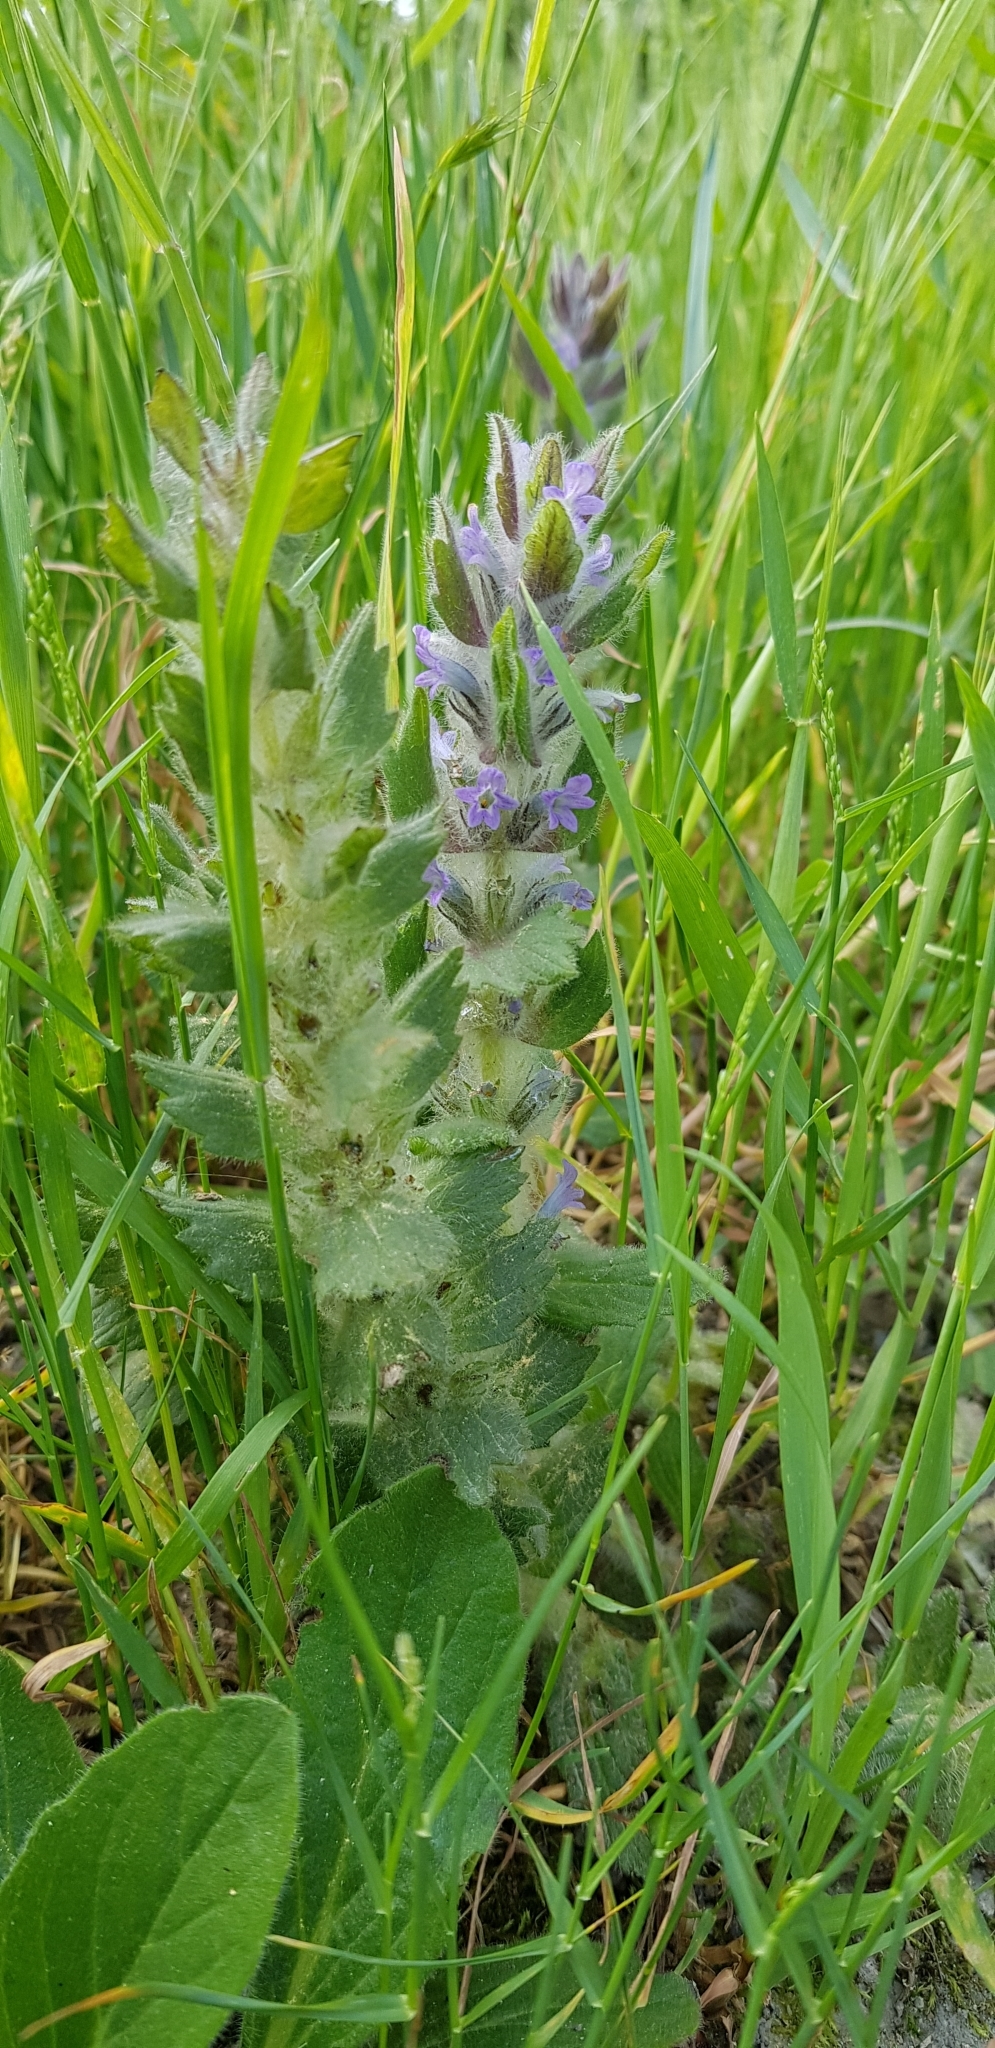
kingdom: Plantae
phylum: Tracheophyta
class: Magnoliopsida
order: Lamiales
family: Lamiaceae
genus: Ajuga
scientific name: Ajuga orientalis
